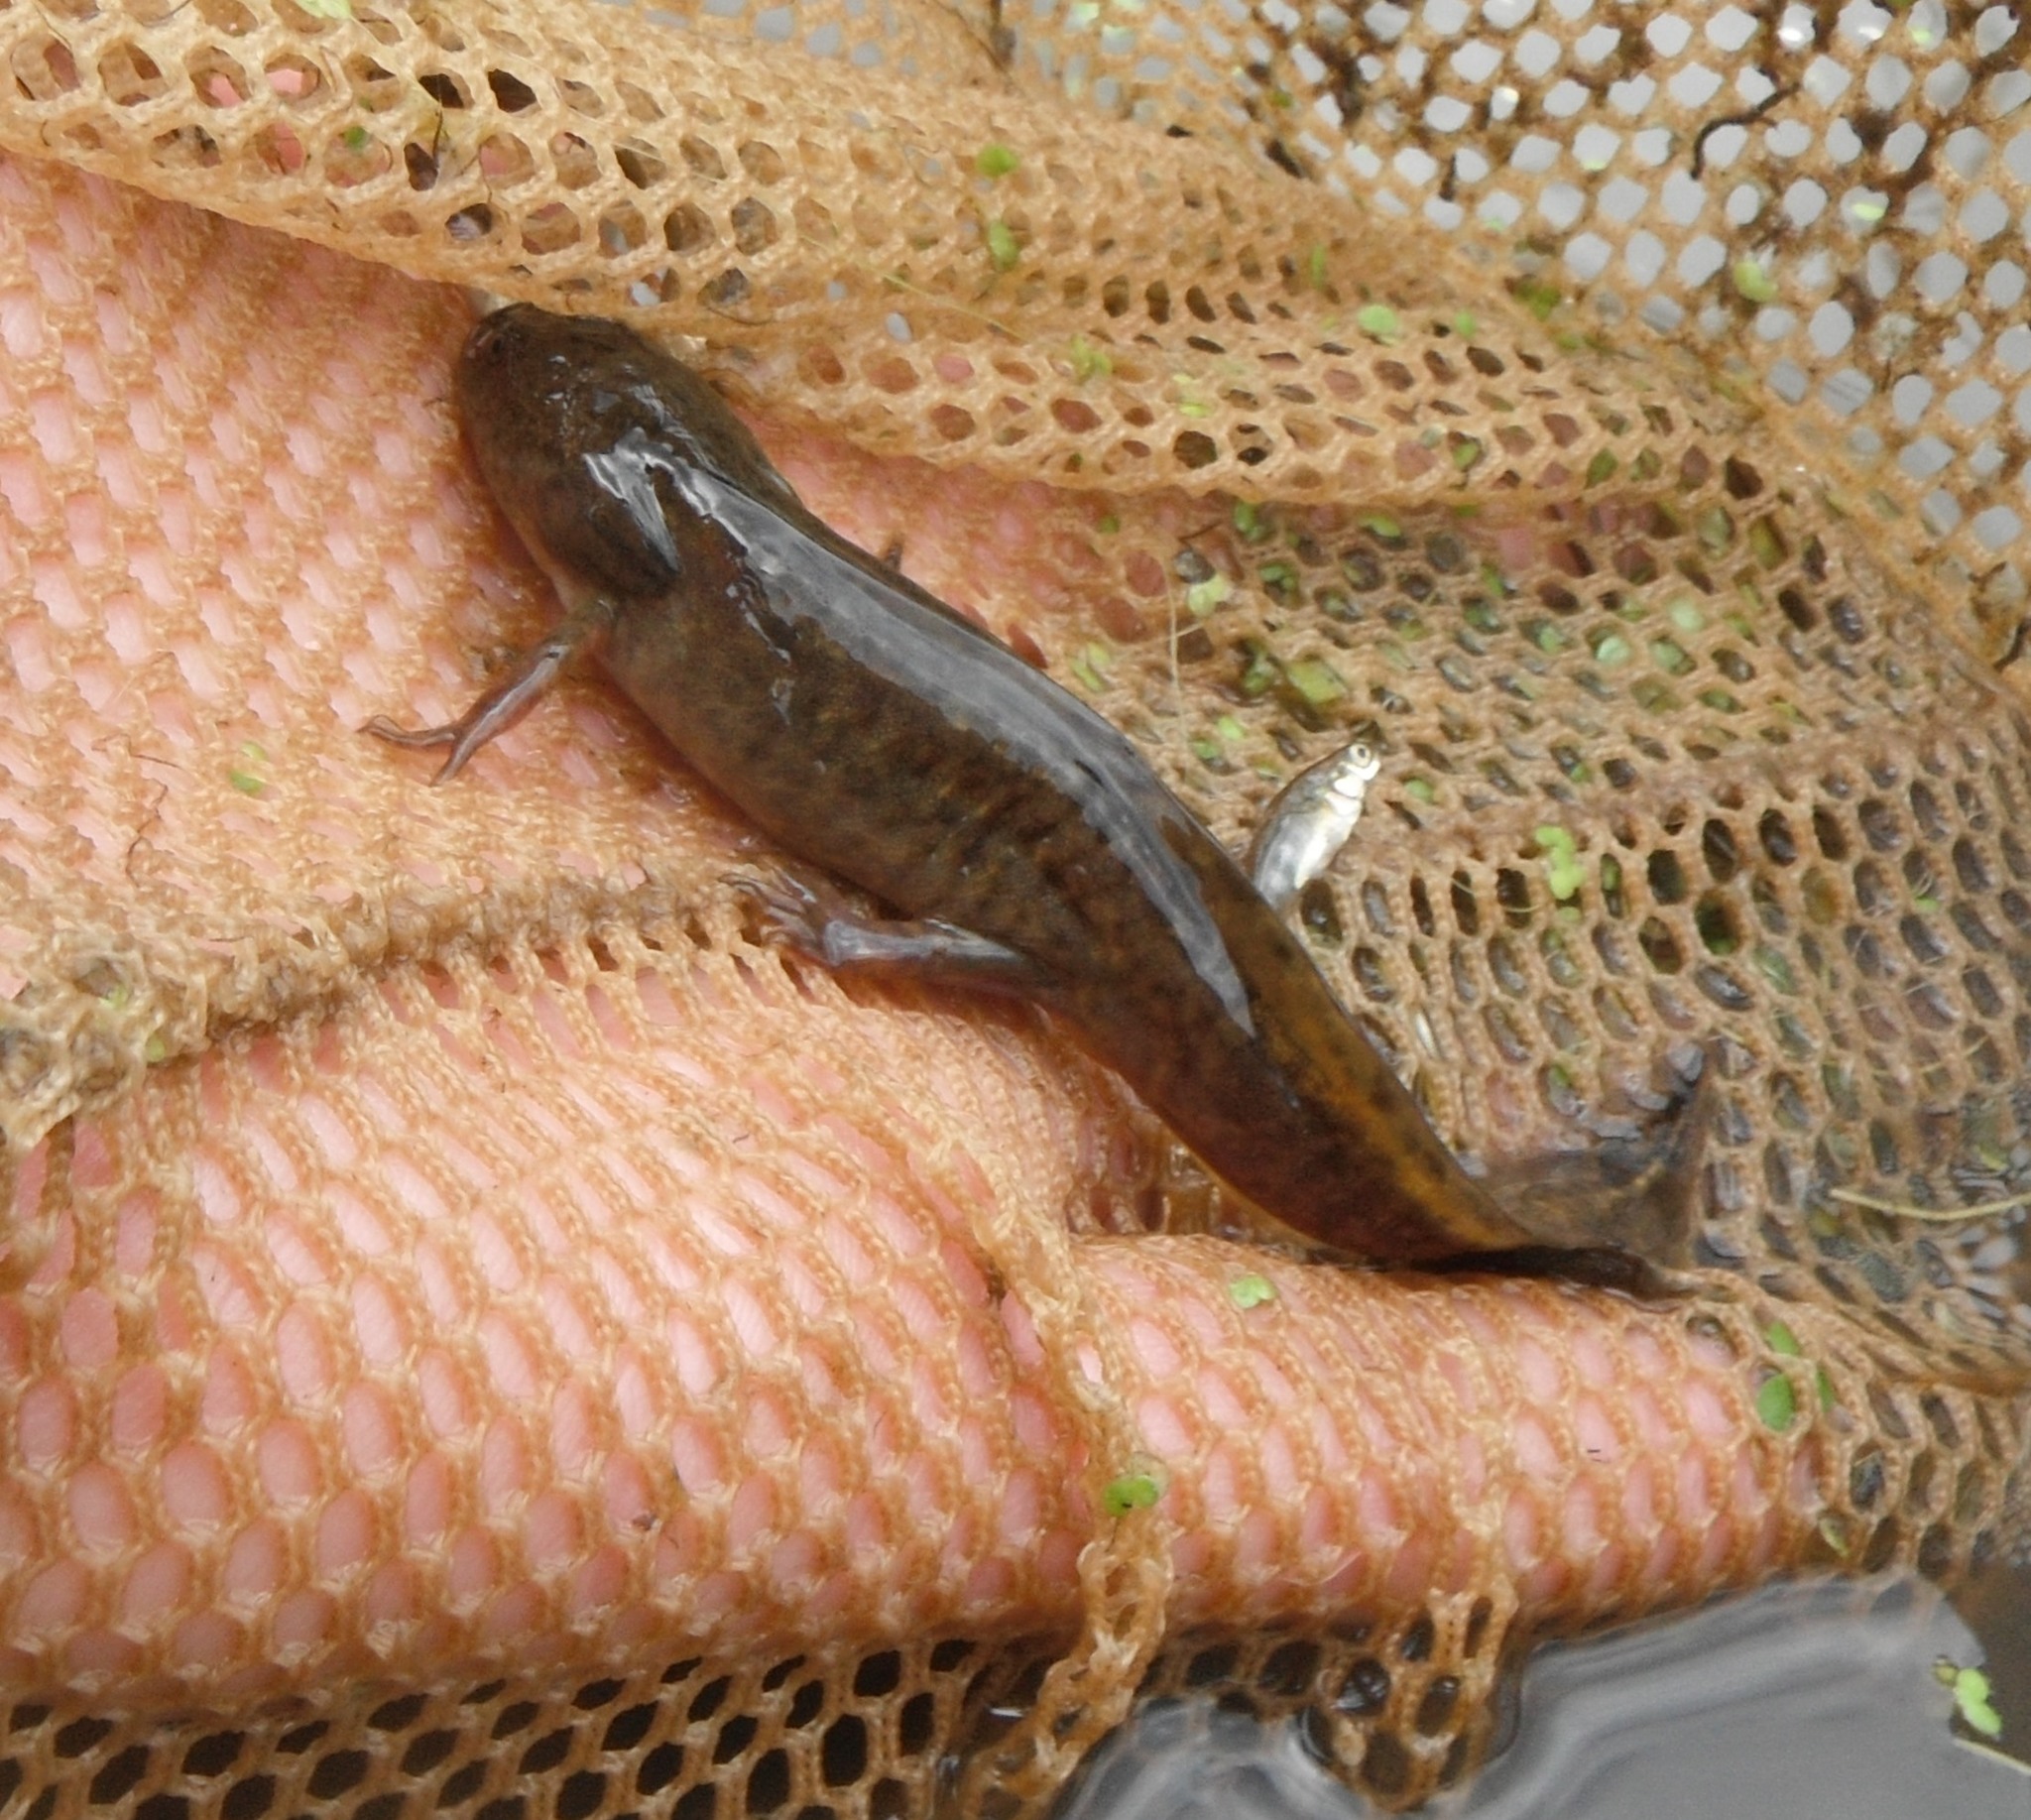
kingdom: Animalia
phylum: Chordata
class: Amphibia
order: Caudata
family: Ambystomatidae
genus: Ambystoma
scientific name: Ambystoma gracile
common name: Northwestern salamander
